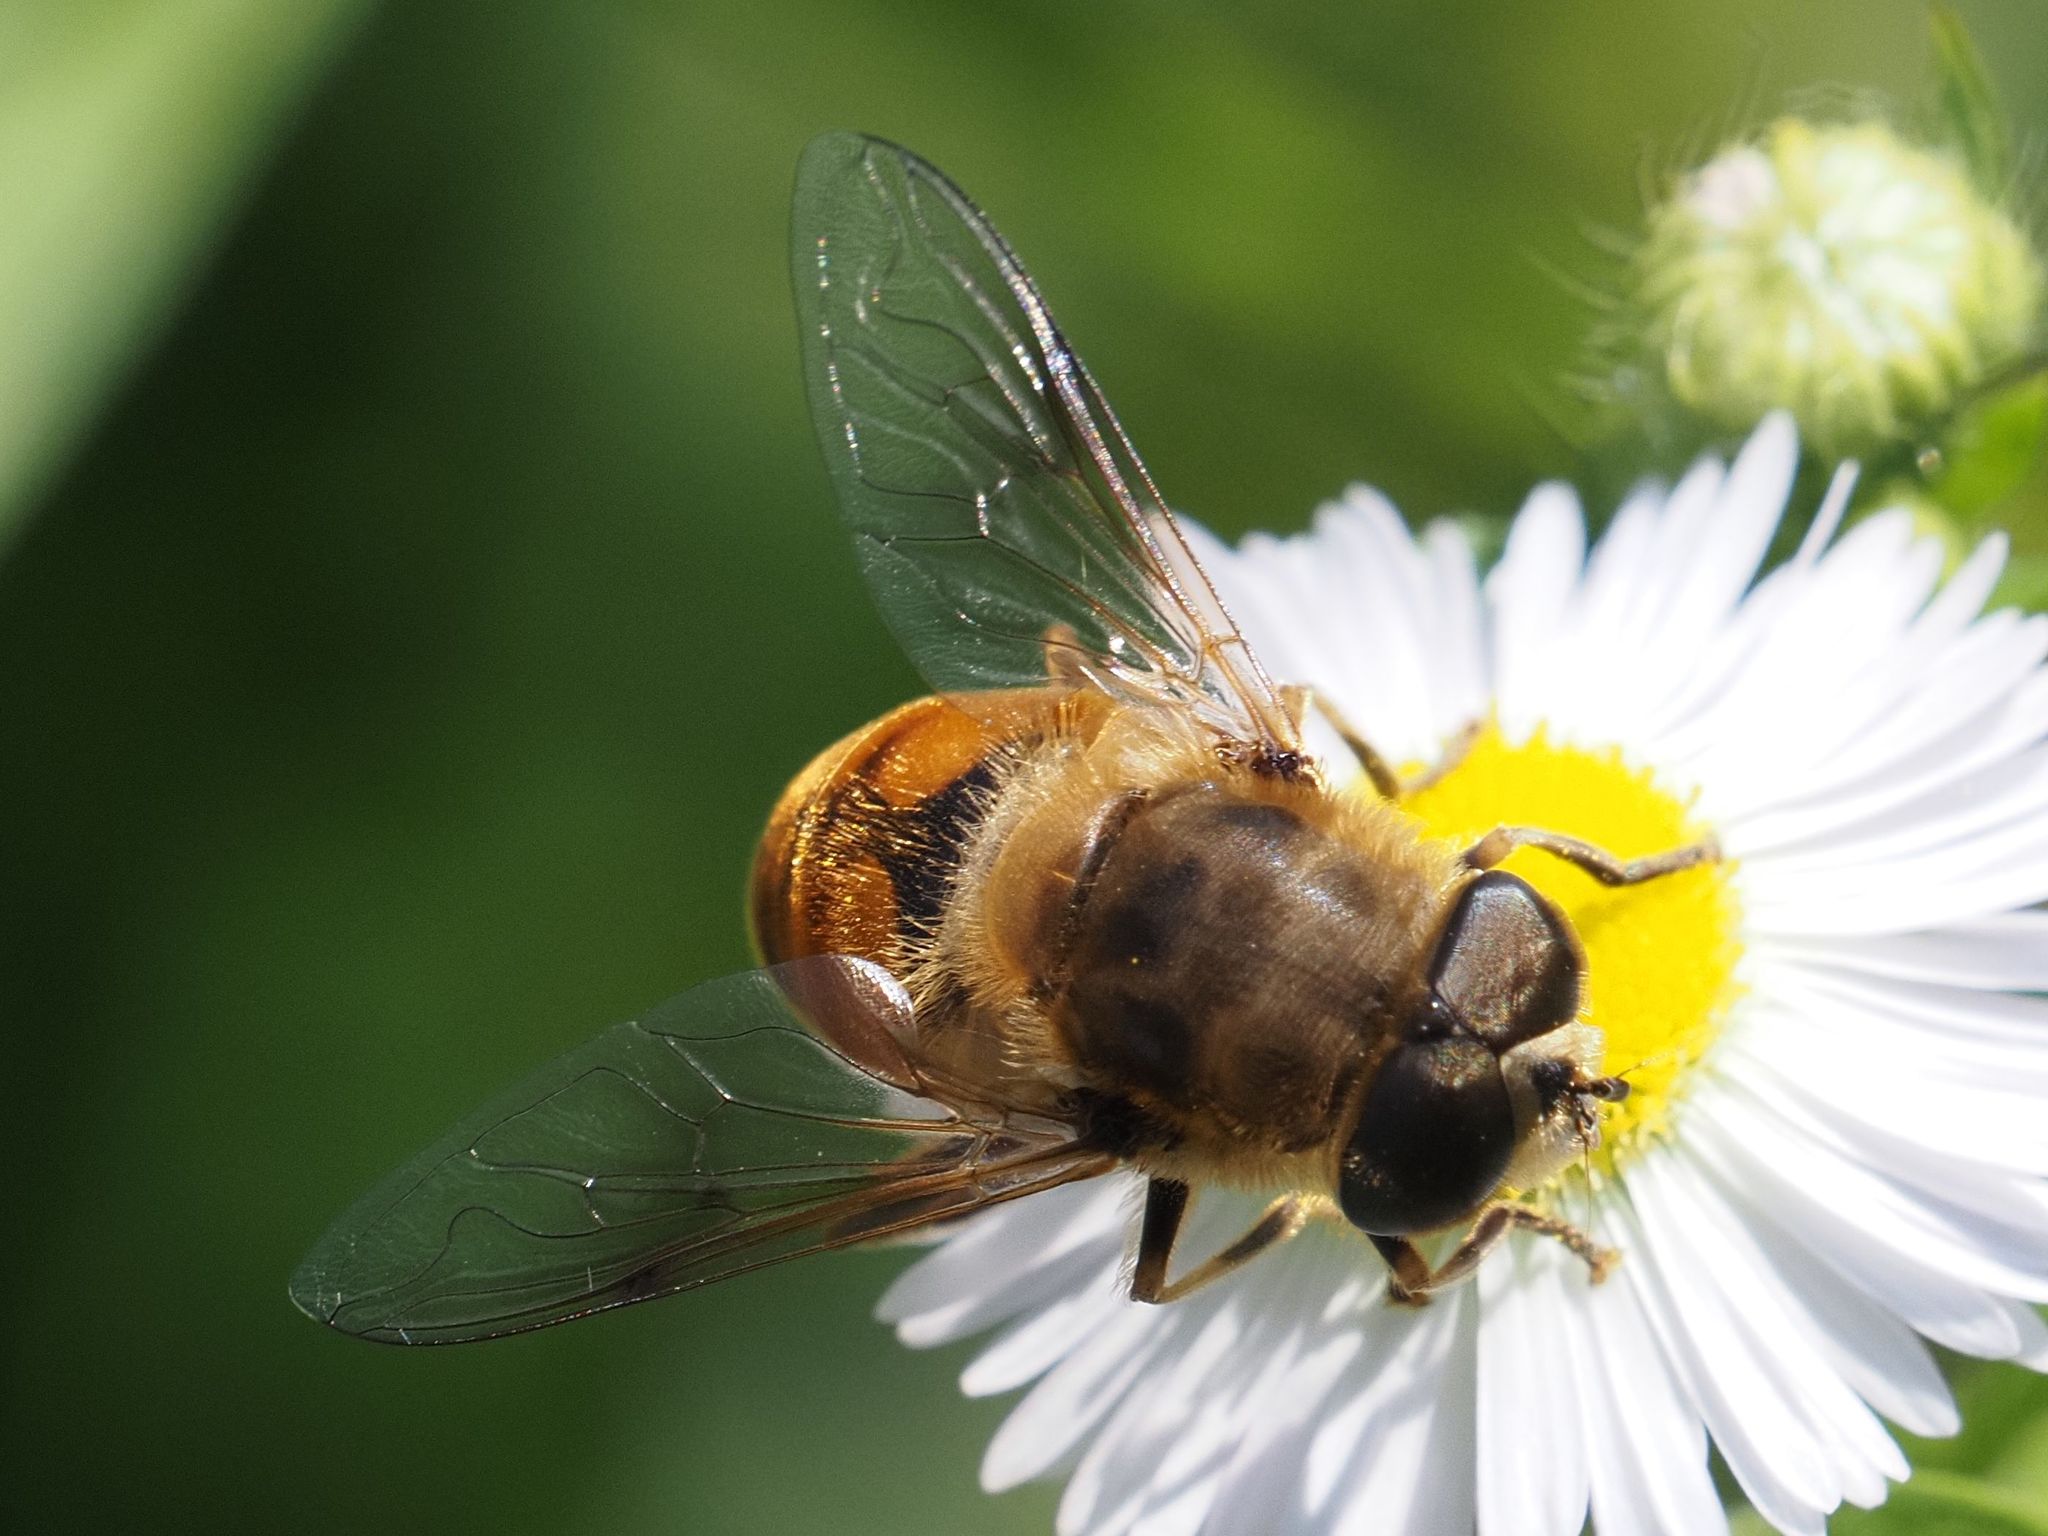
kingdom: Animalia
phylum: Arthropoda
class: Insecta
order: Diptera
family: Syrphidae
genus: Eristalis
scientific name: Eristalis tenax
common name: Drone fly
